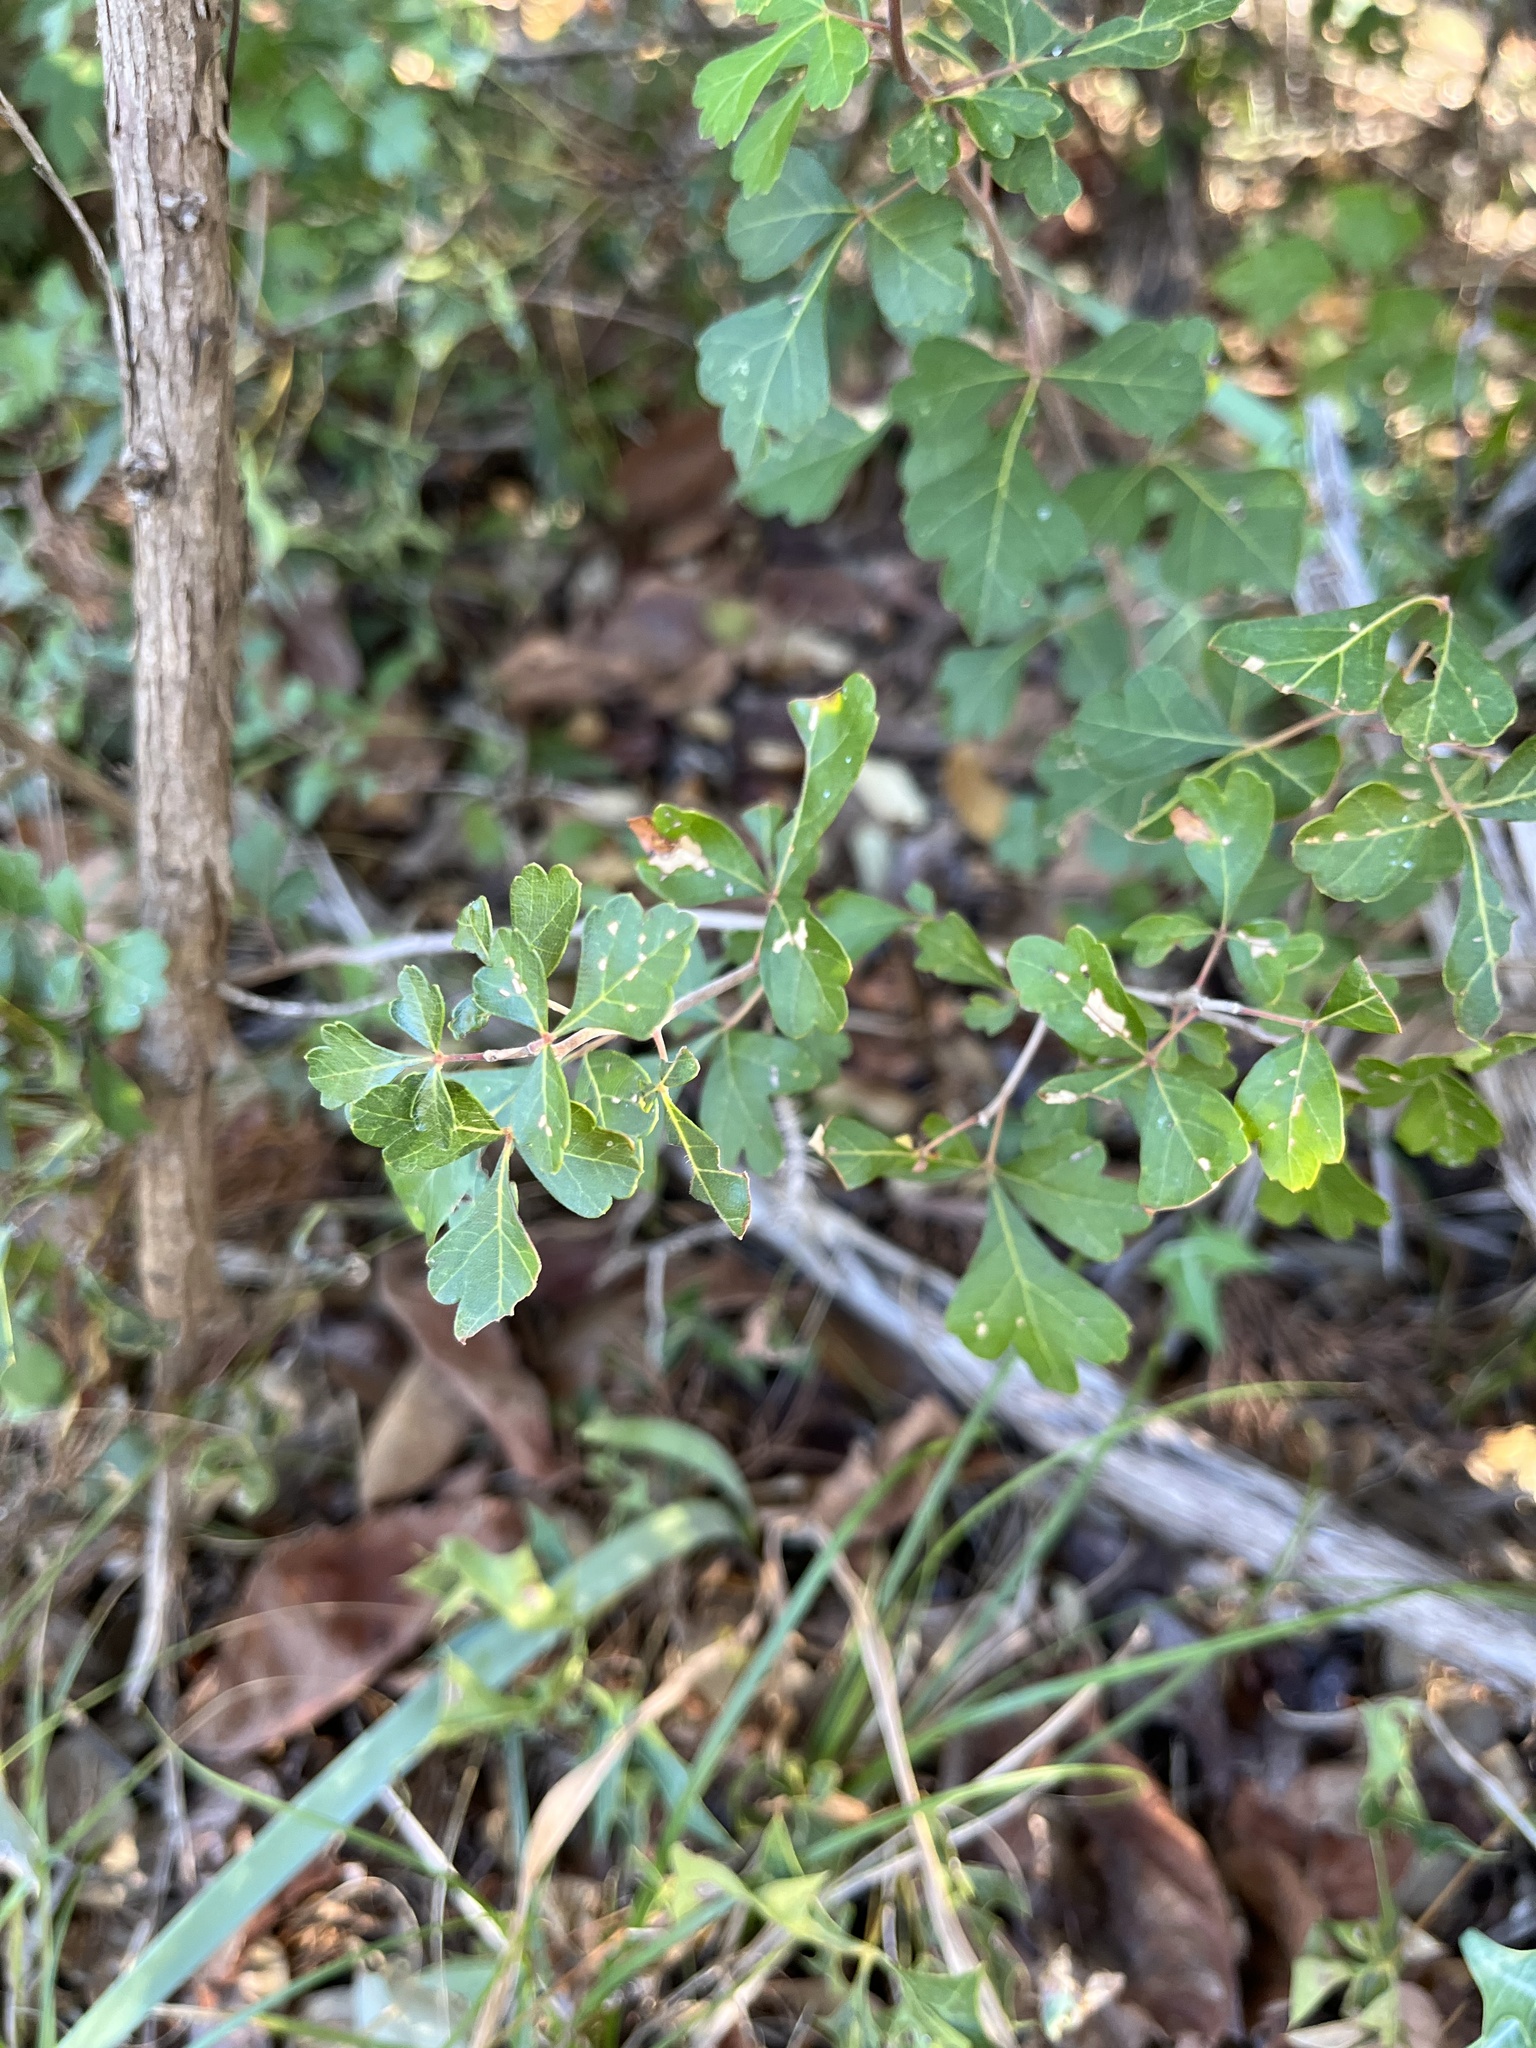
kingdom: Plantae
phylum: Tracheophyta
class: Magnoliopsida
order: Sapindales
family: Anacardiaceae
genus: Rhus
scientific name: Rhus aromatica
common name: Aromatic sumac
